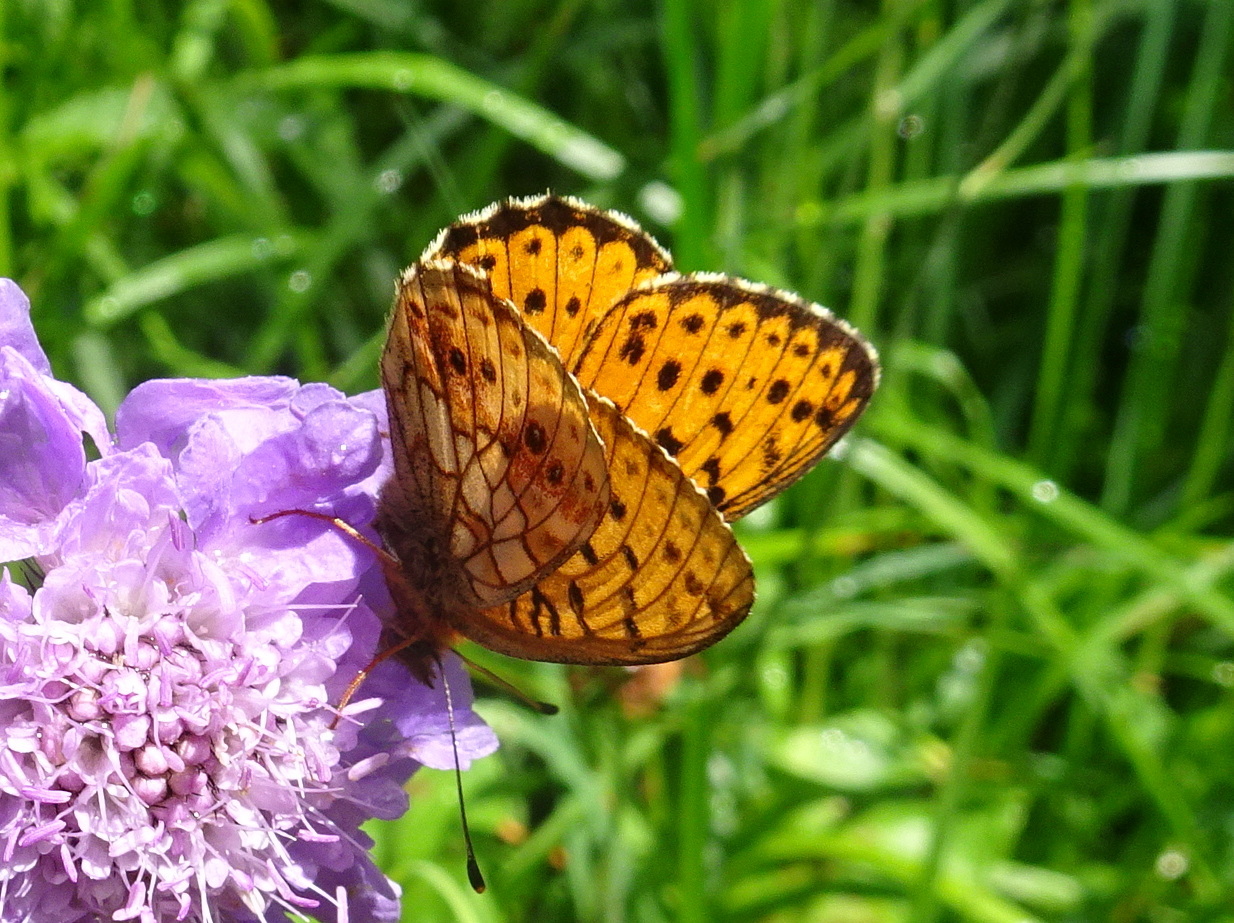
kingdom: Animalia
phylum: Arthropoda
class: Insecta
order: Lepidoptera
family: Nymphalidae
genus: Brenthis
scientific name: Brenthis ino
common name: Lesser marbled fritillary
